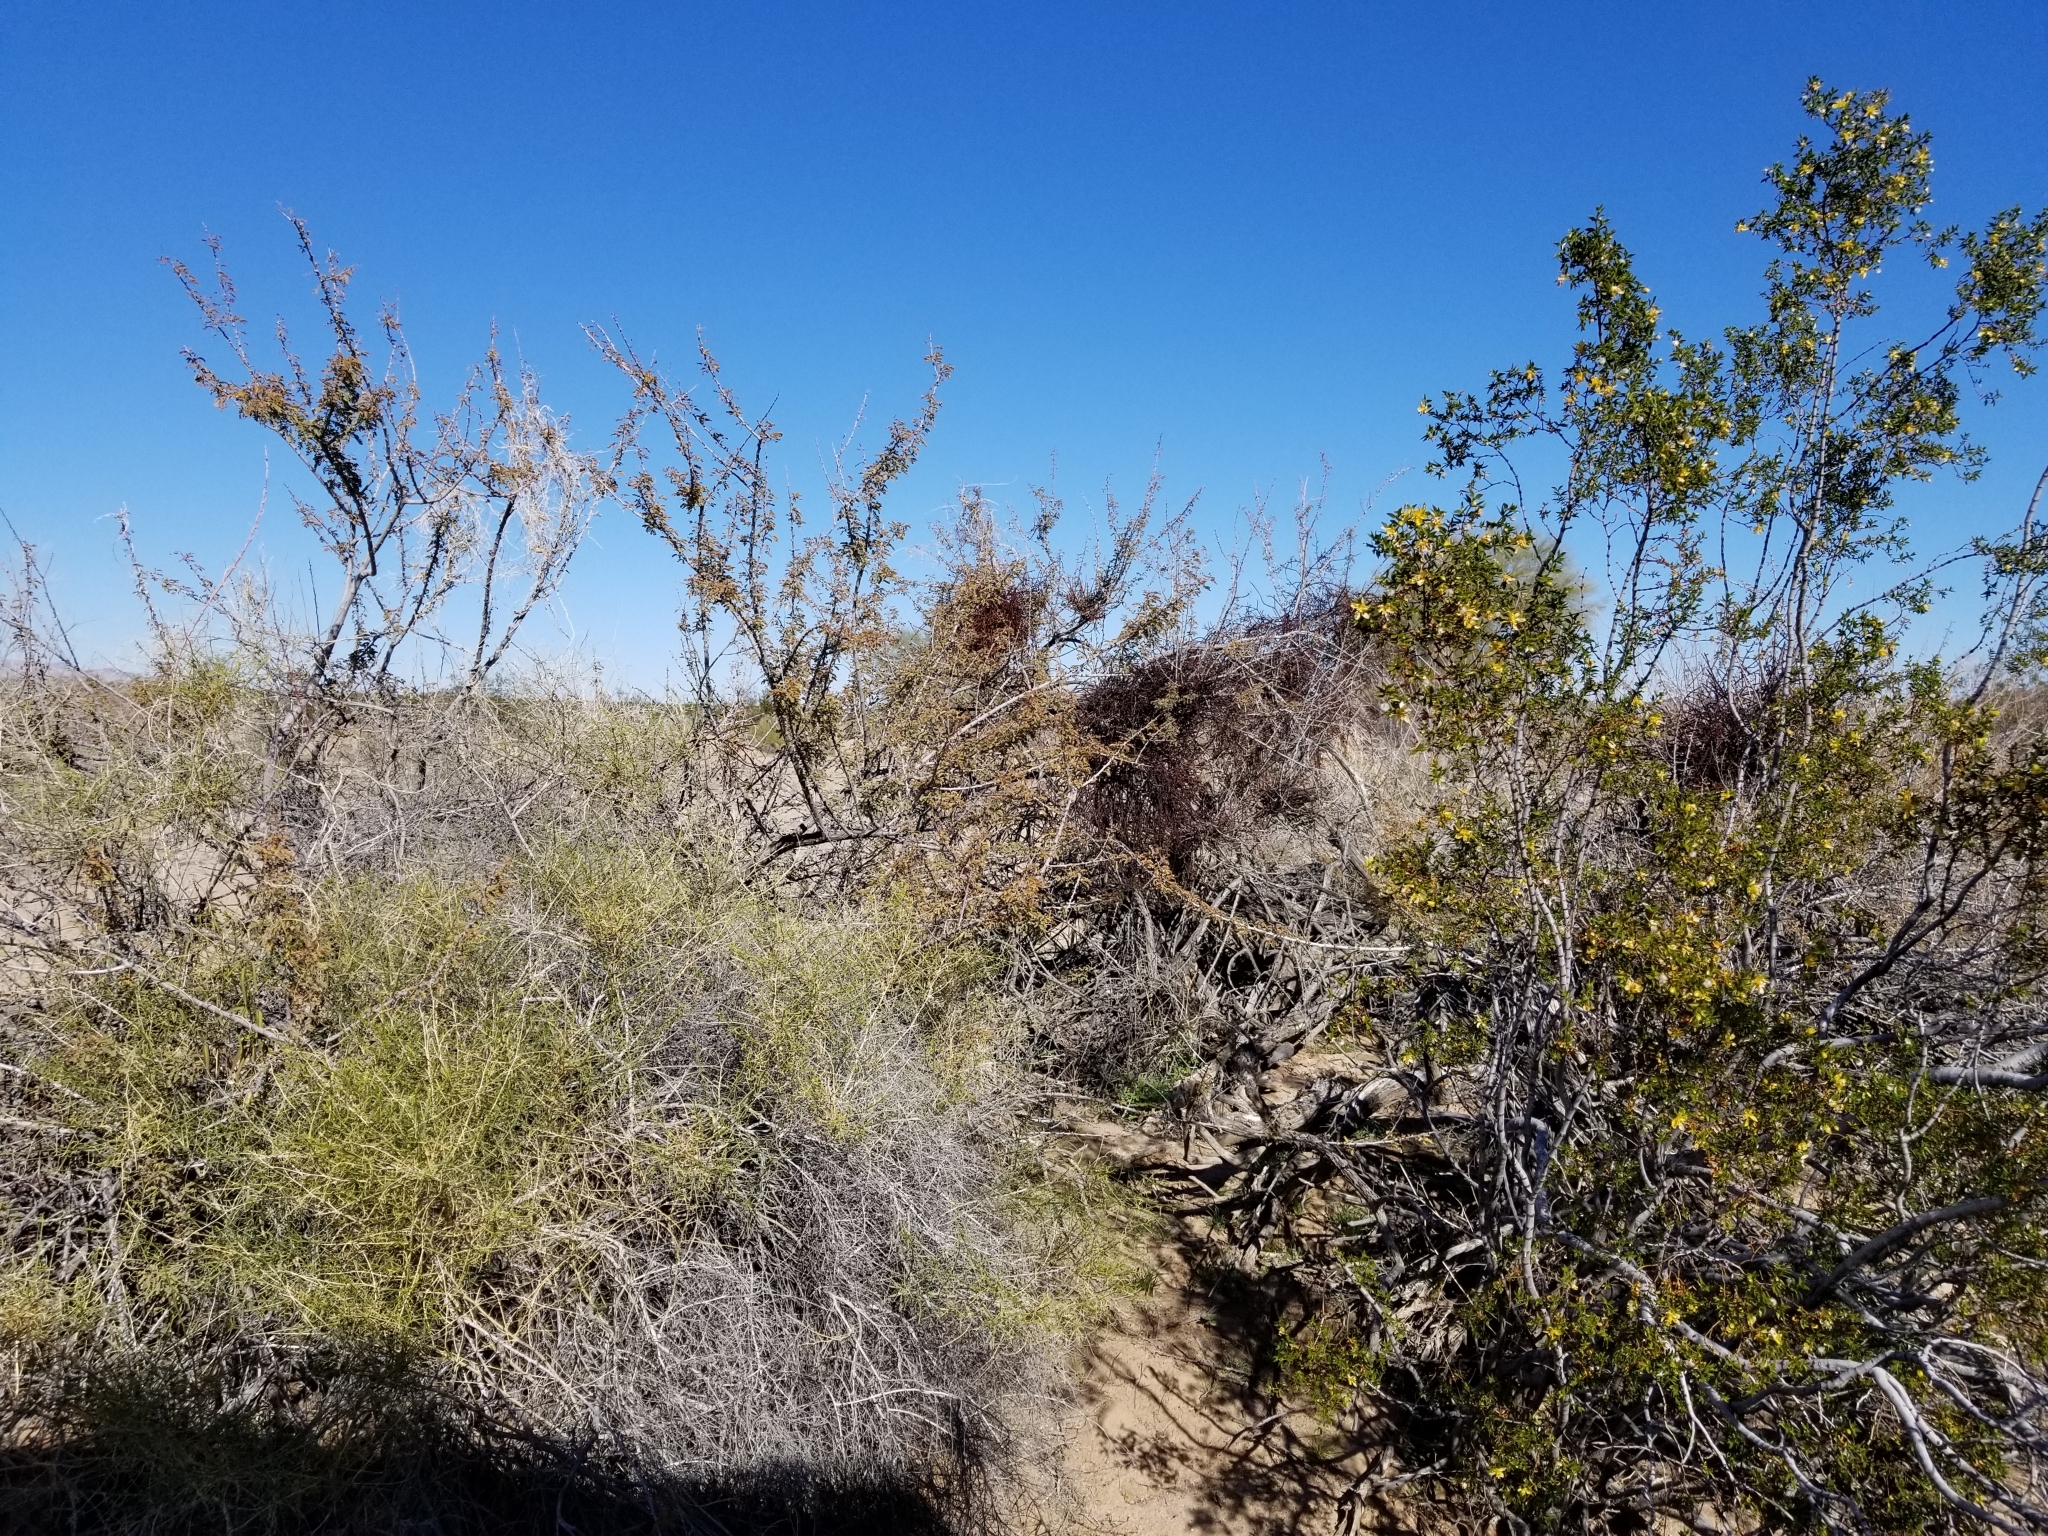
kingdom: Plantae
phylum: Tracheophyta
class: Magnoliopsida
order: Santalales
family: Viscaceae
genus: Phoradendron
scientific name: Phoradendron californicum
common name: Acacia mistletoe
